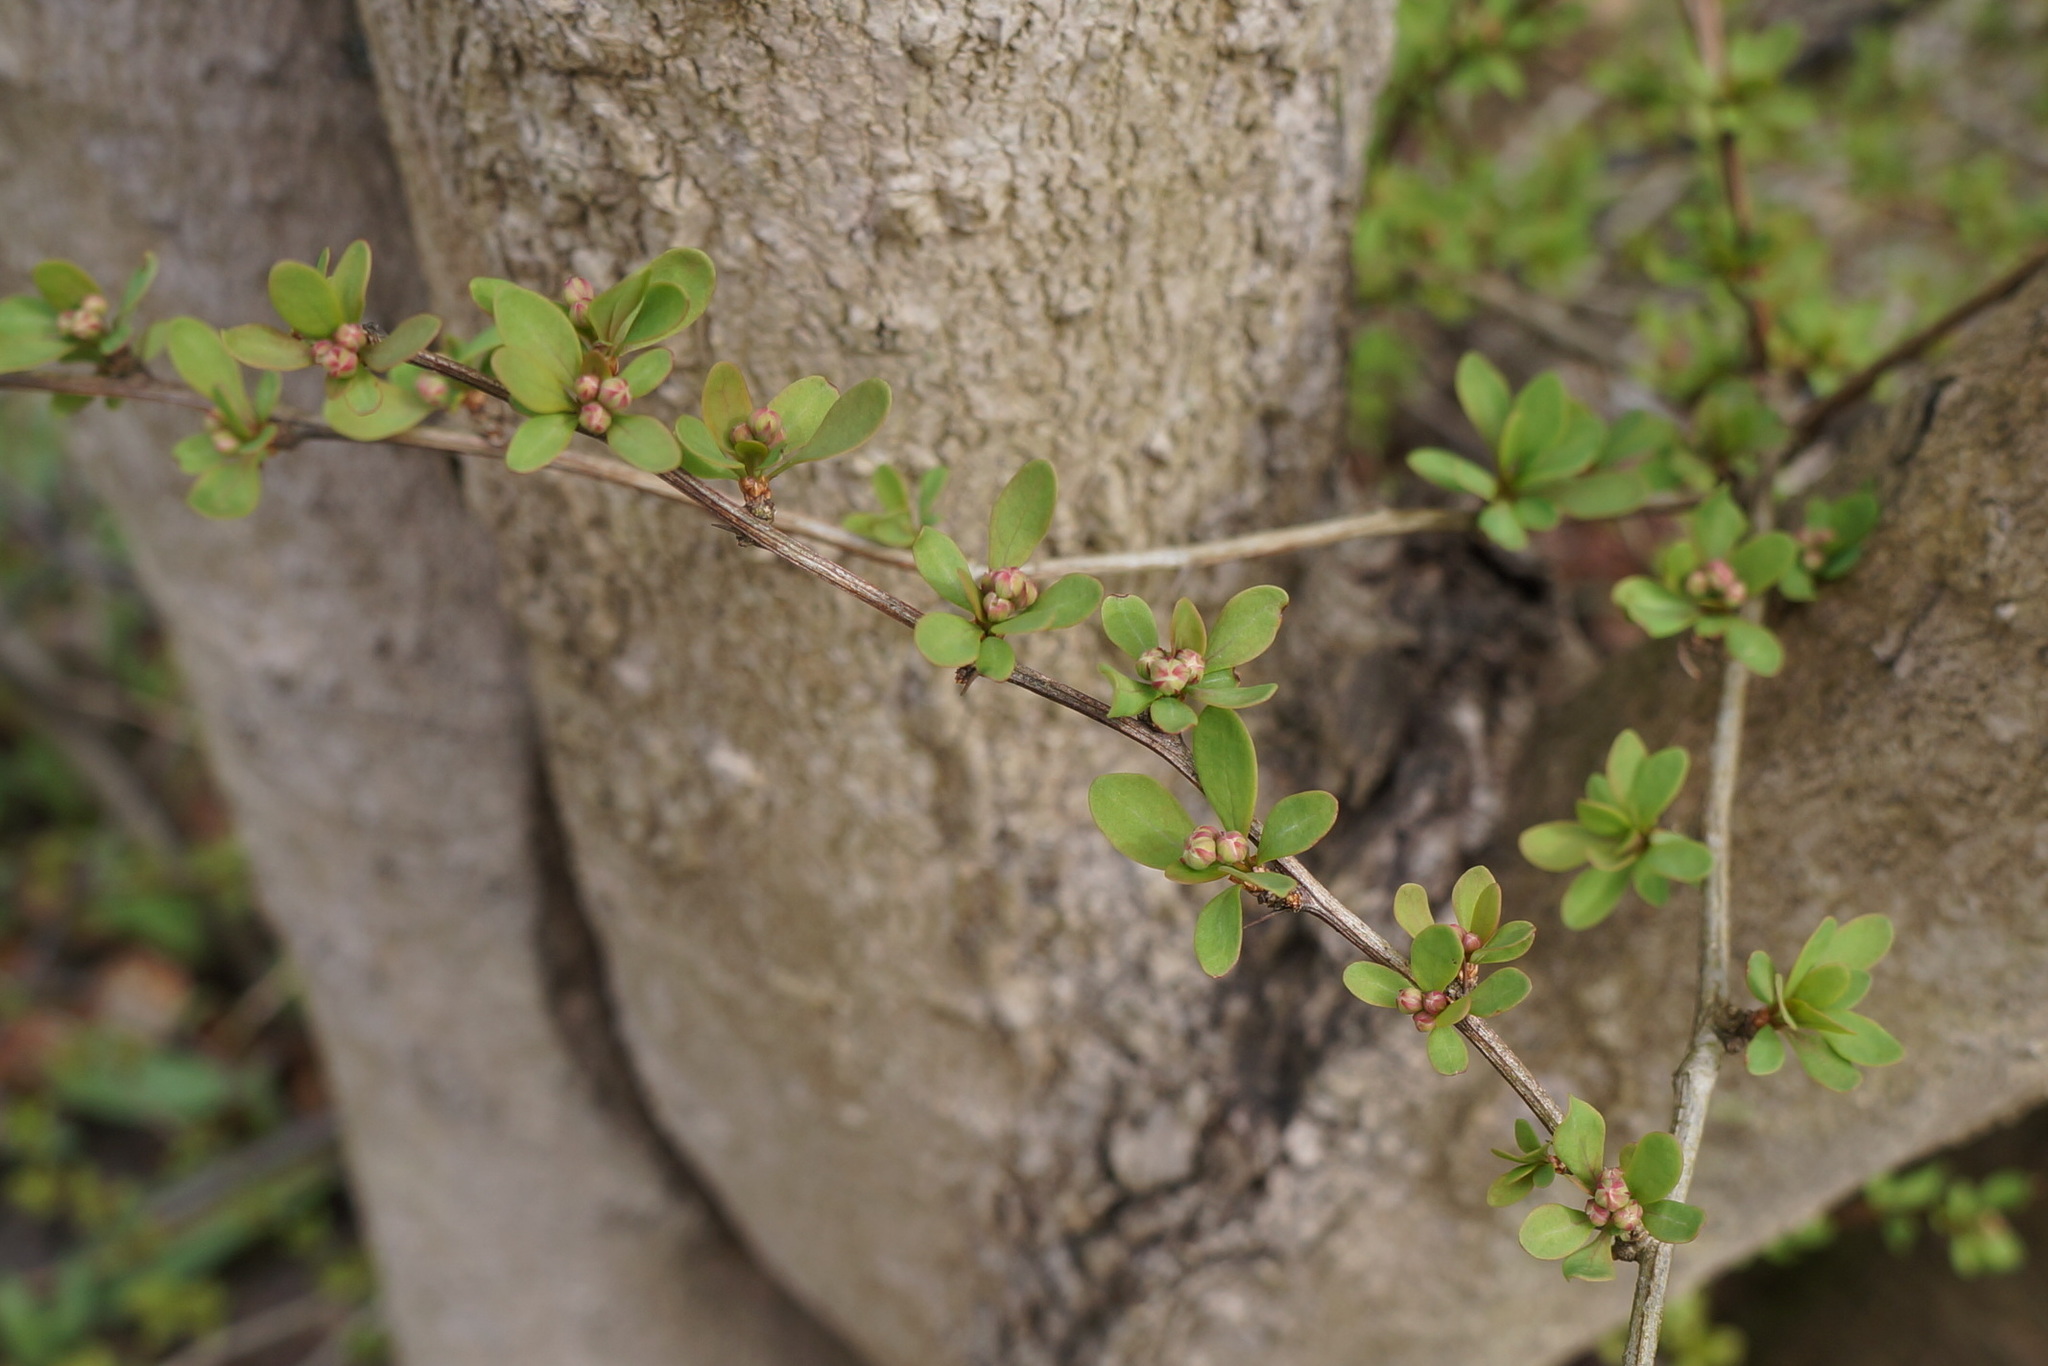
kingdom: Plantae
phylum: Tracheophyta
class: Magnoliopsida
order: Ranunculales
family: Berberidaceae
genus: Berberis
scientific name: Berberis thunbergii
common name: Japanese barberry
